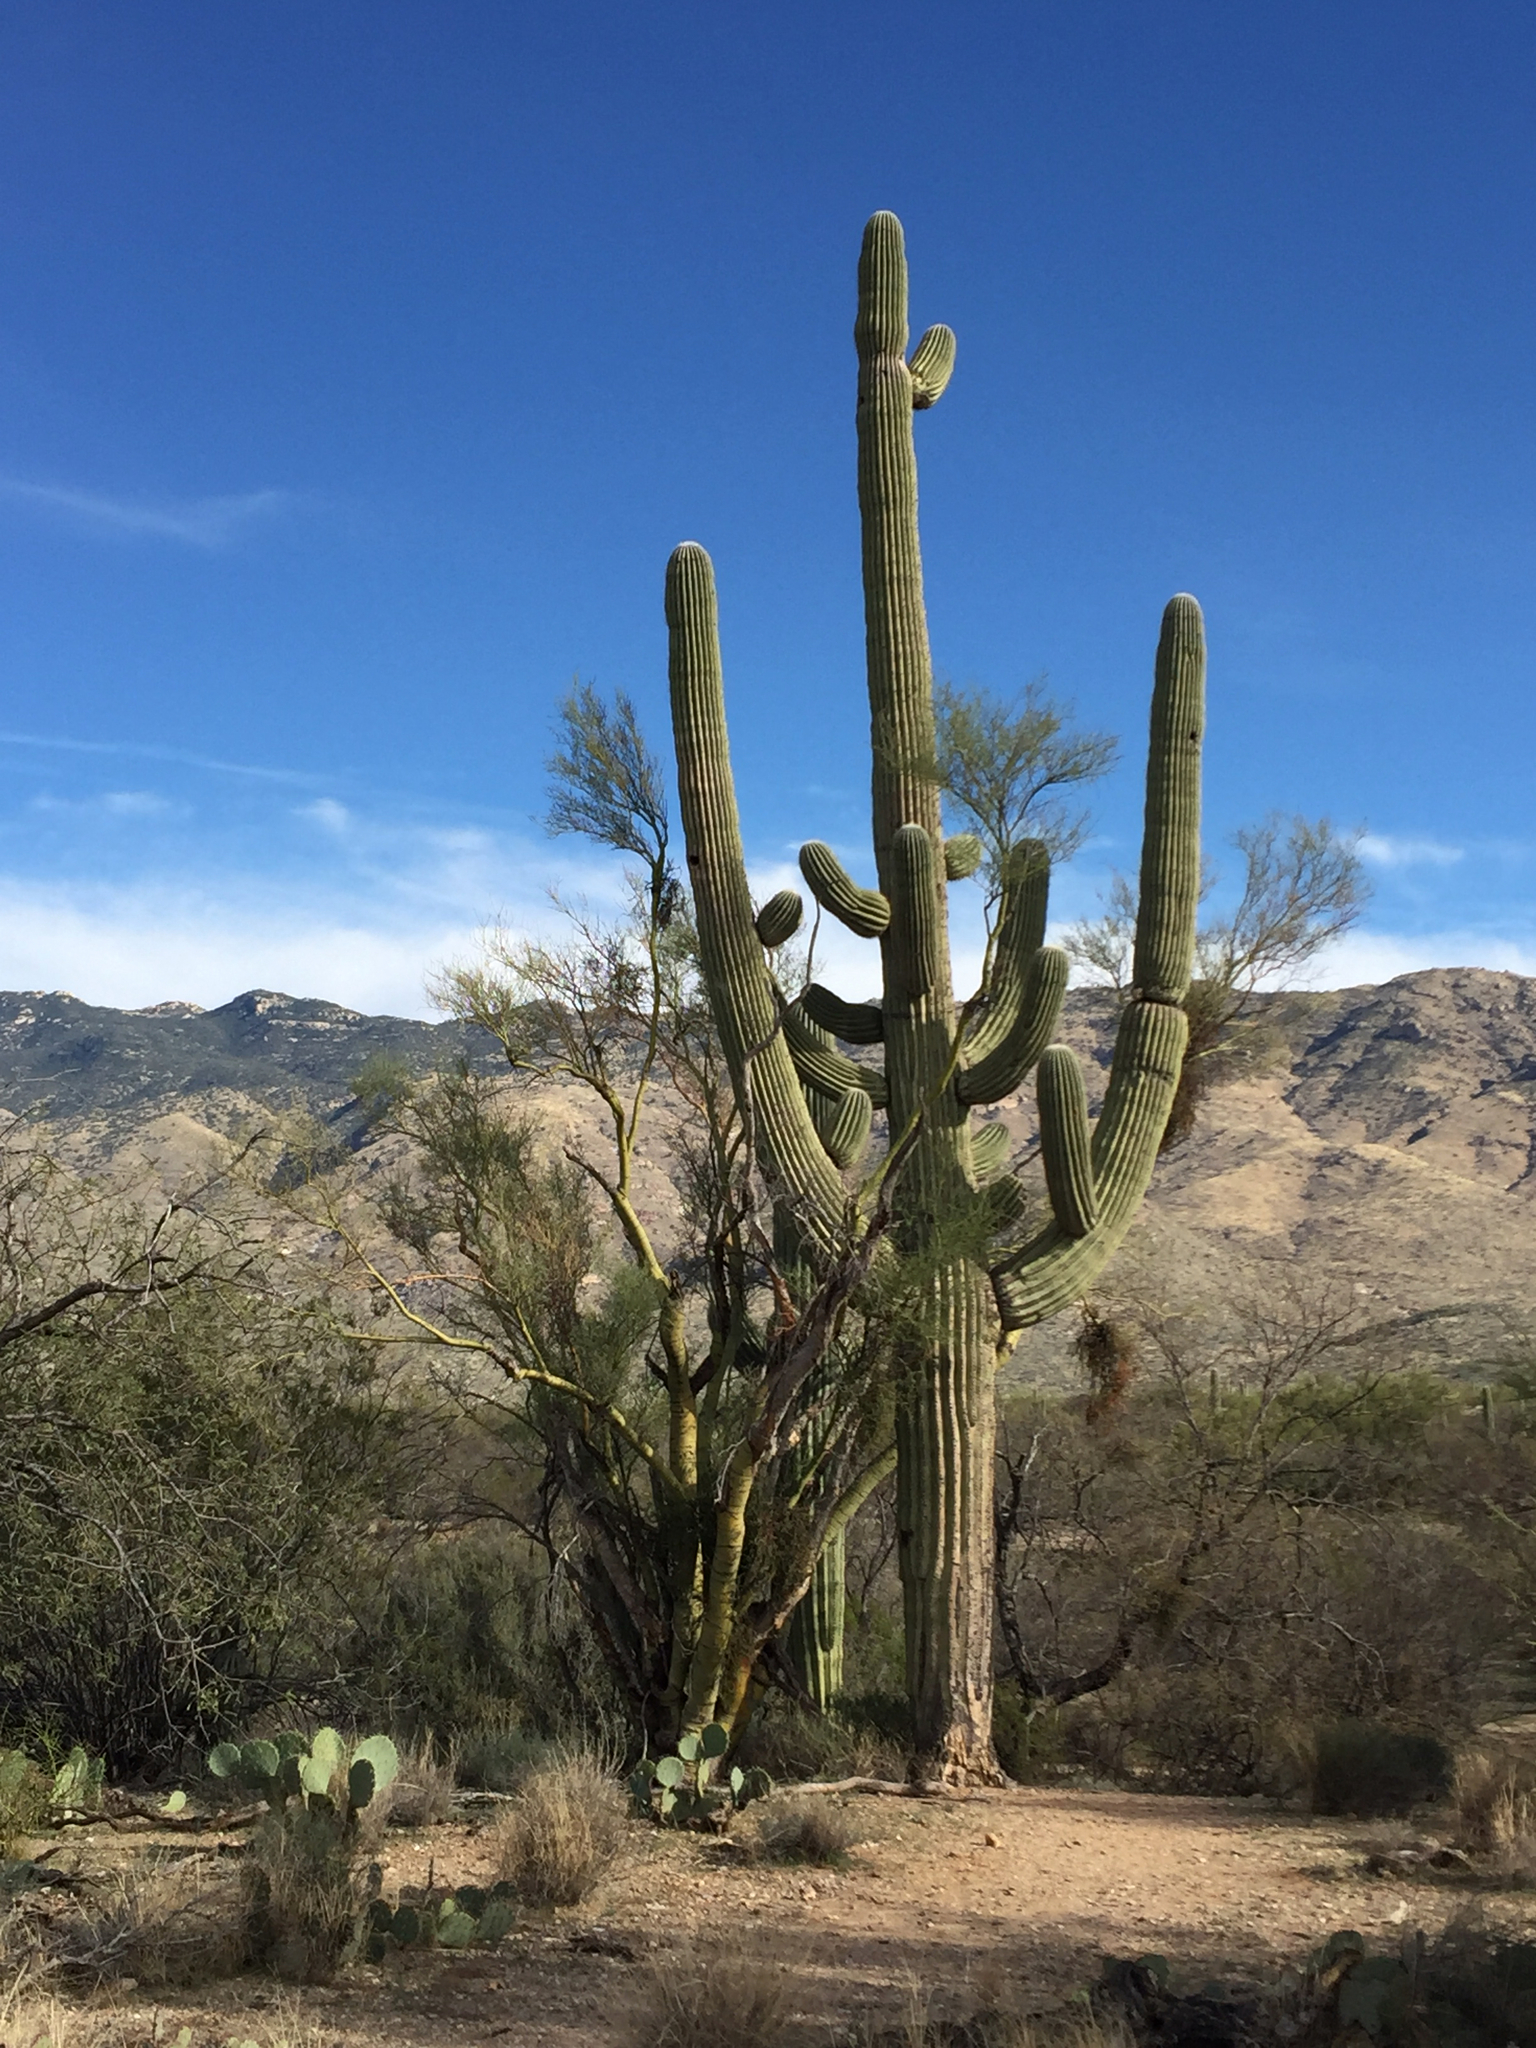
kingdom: Plantae
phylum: Tracheophyta
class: Magnoliopsida
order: Caryophyllales
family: Cactaceae
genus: Carnegiea
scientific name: Carnegiea gigantea
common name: Saguaro
